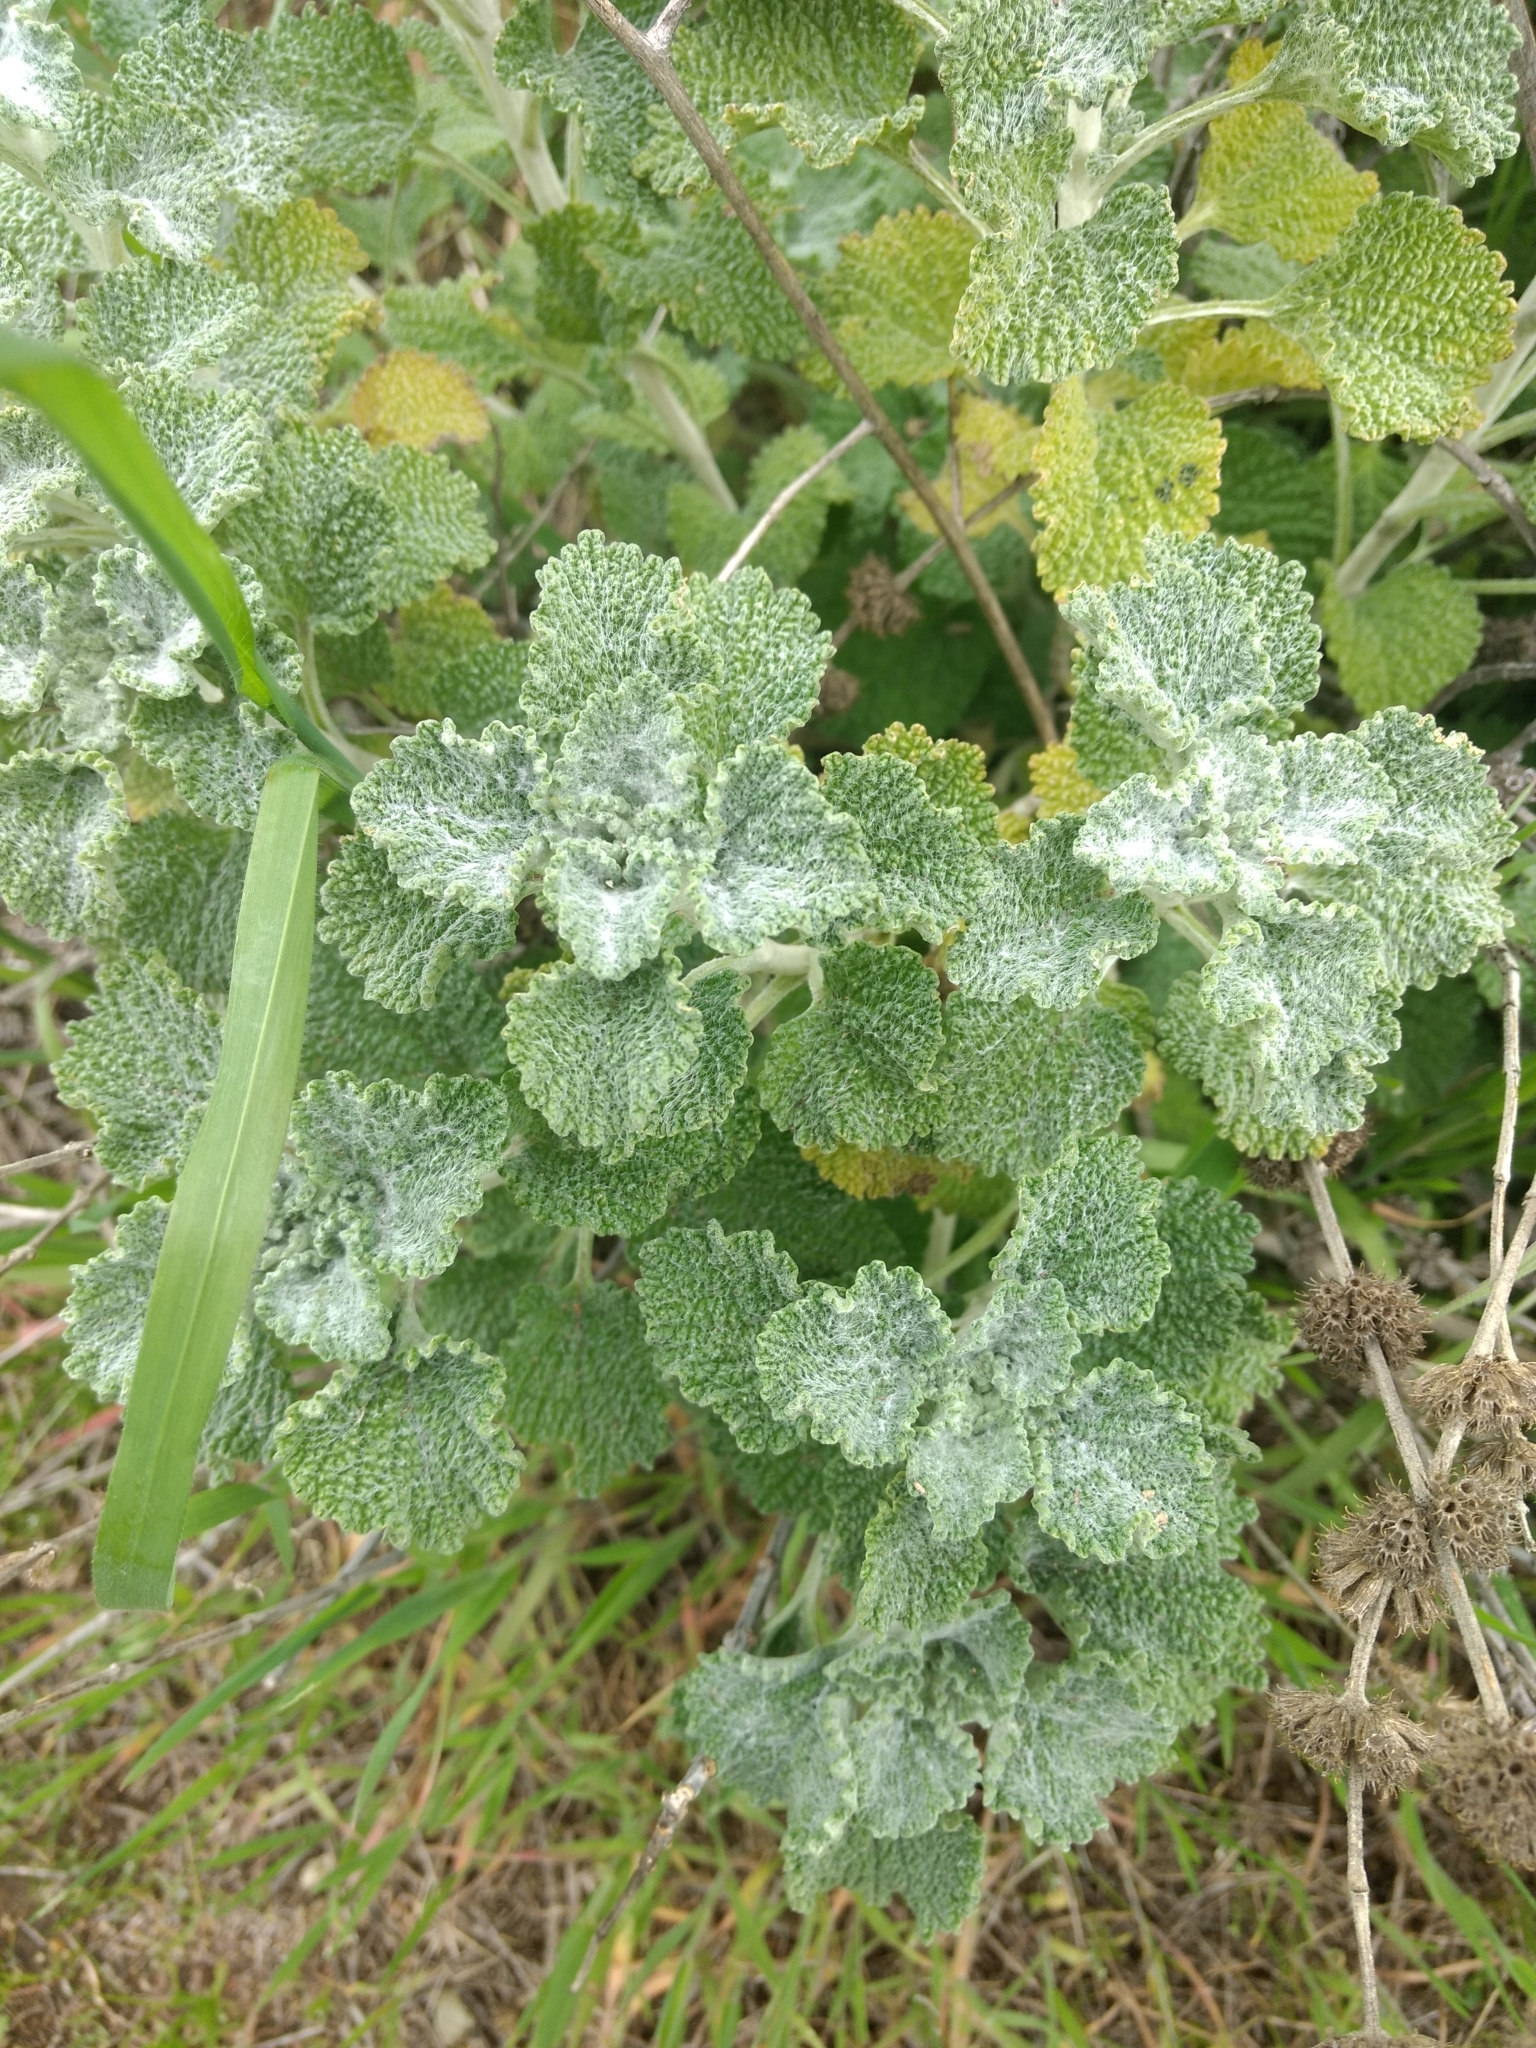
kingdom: Plantae
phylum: Tracheophyta
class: Magnoliopsida
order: Lamiales
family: Lamiaceae
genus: Marrubium
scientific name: Marrubium vulgare
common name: Horehound
